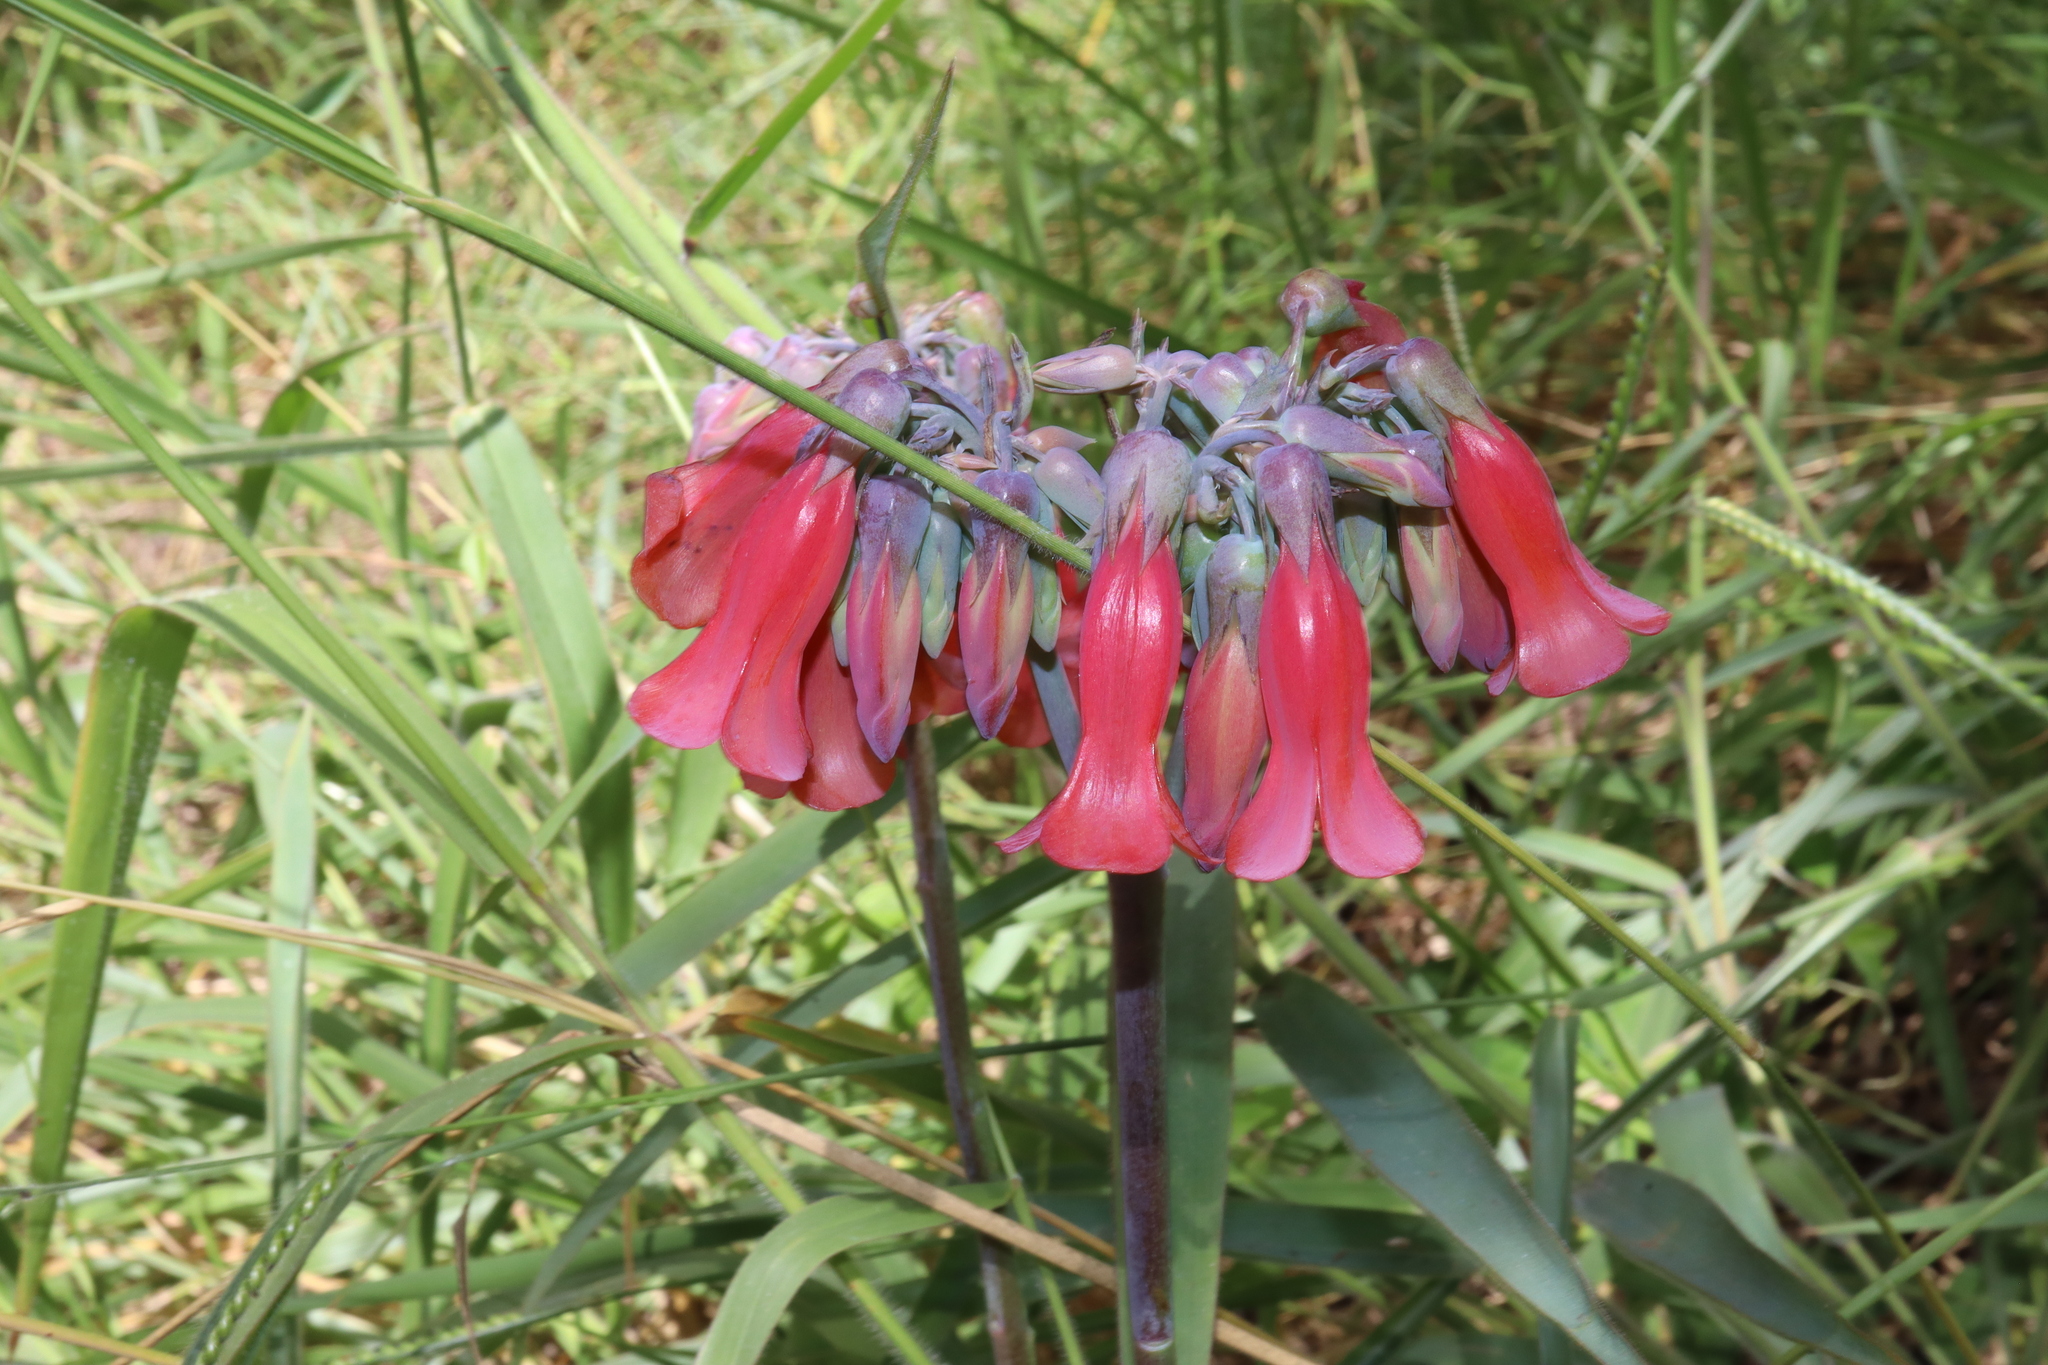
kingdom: Plantae
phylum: Tracheophyta
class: Magnoliopsida
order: Saxifragales
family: Crassulaceae
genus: Kalanchoe
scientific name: Kalanchoe delagoensis
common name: Chandelier plant
